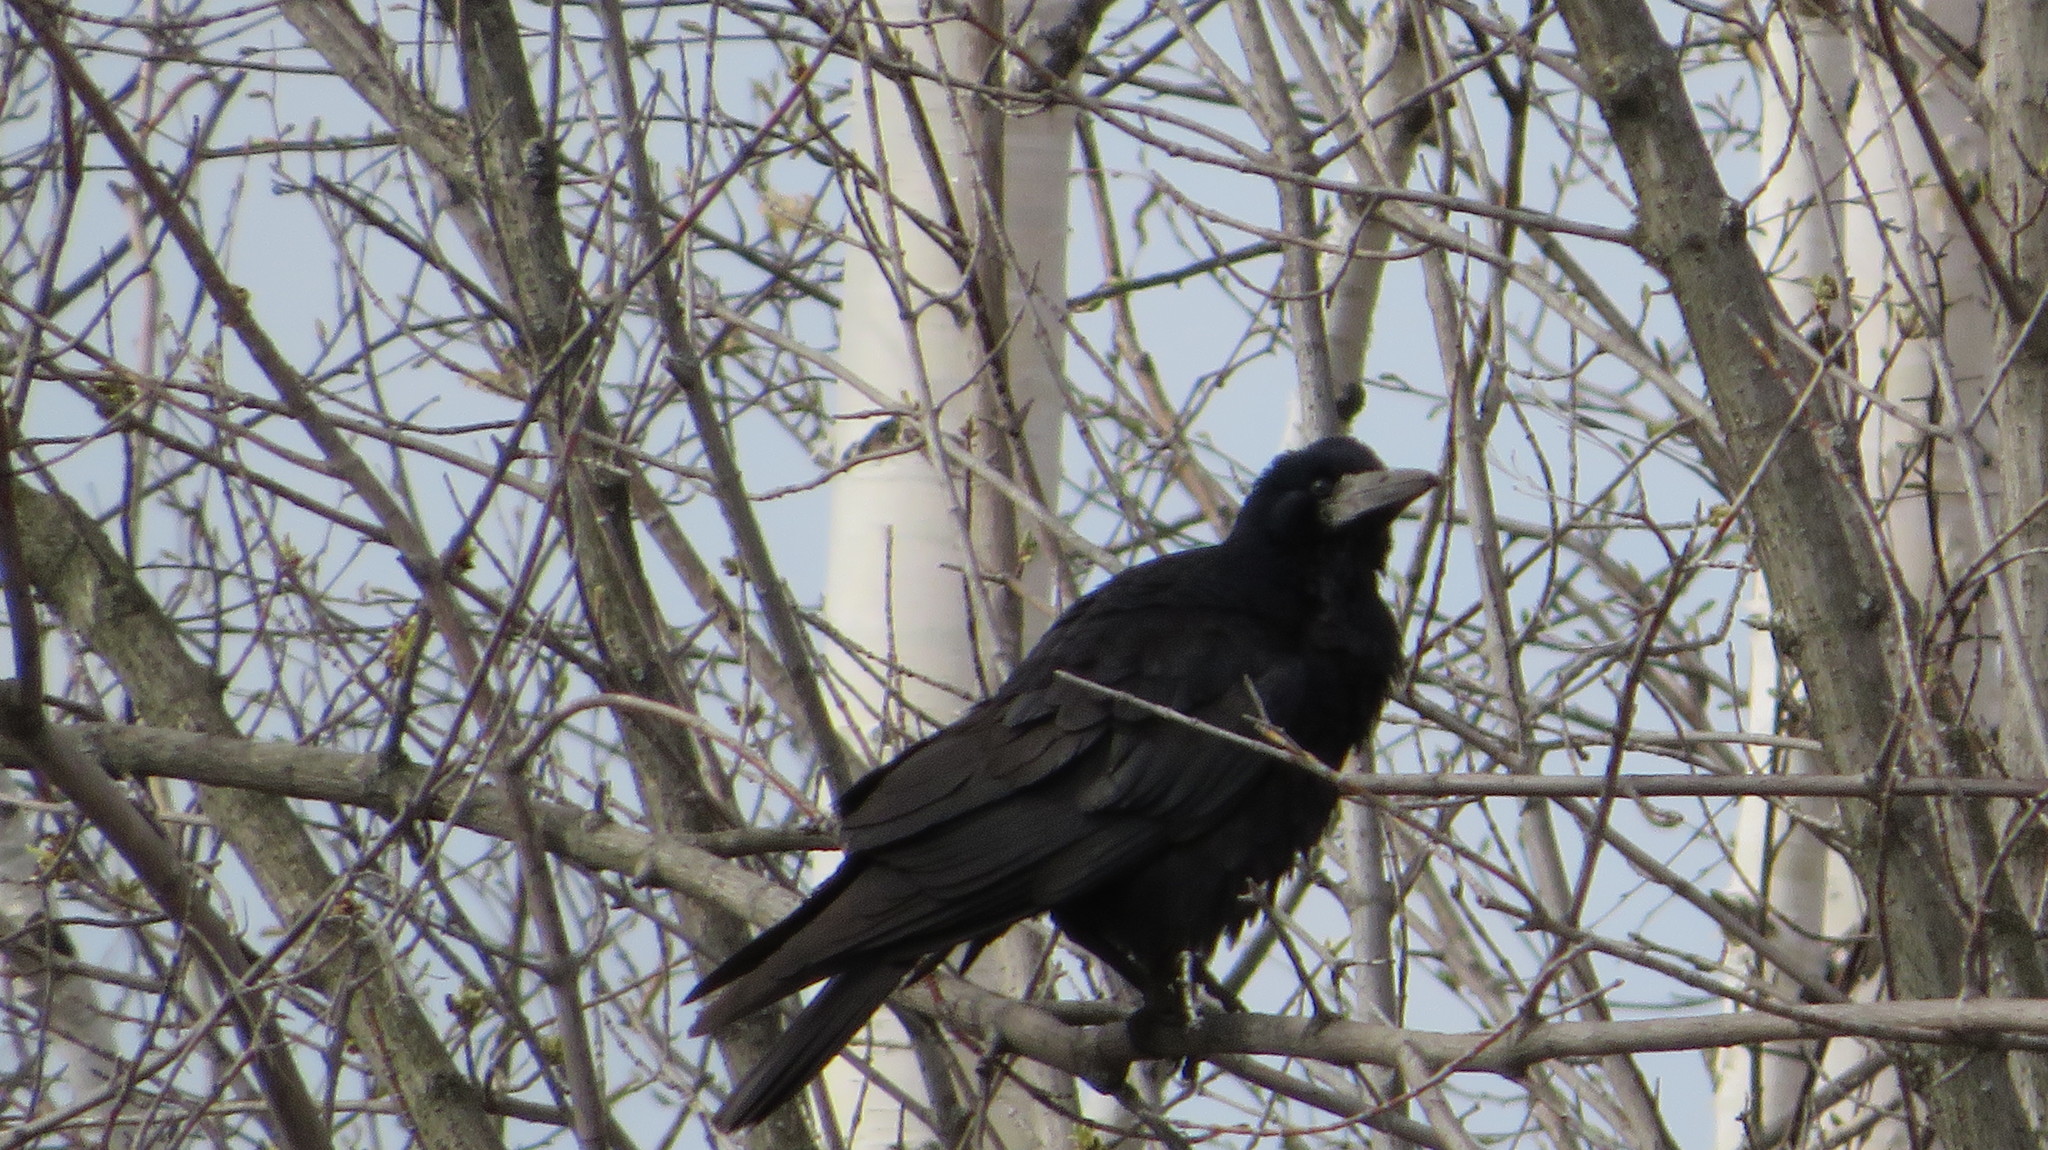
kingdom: Animalia
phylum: Chordata
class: Aves
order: Passeriformes
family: Corvidae
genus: Corvus
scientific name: Corvus frugilegus
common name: Rook
